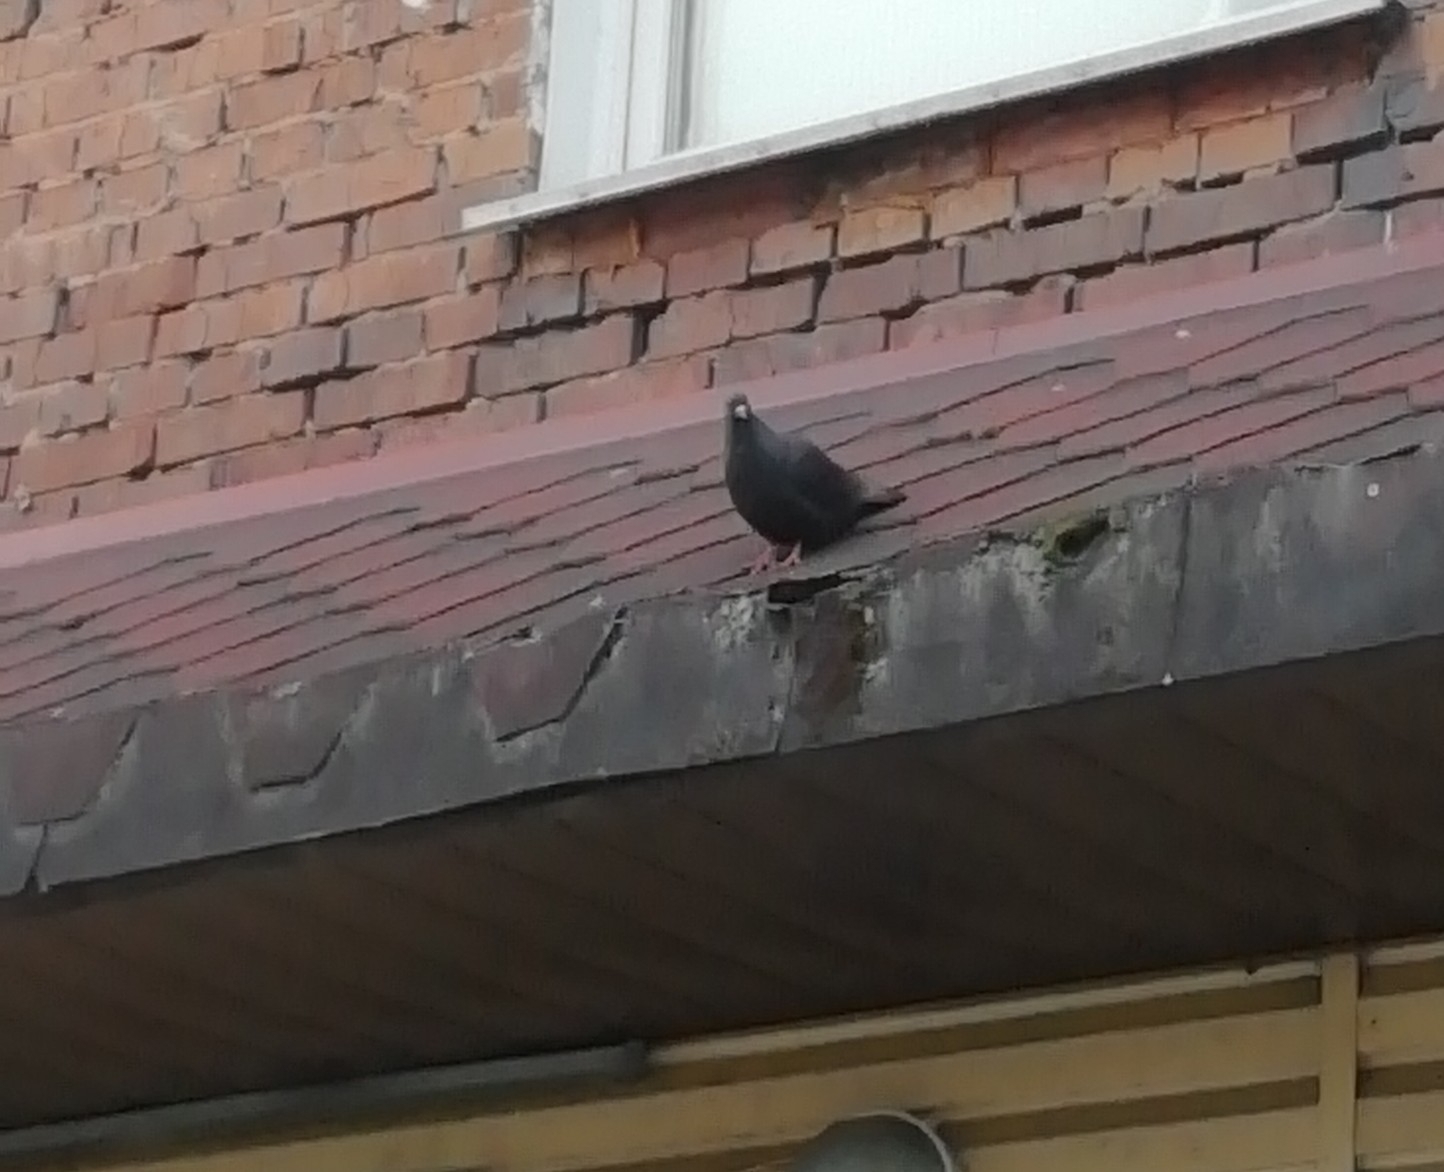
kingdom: Animalia
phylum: Chordata
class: Aves
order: Columbiformes
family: Columbidae
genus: Columba
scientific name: Columba livia
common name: Rock pigeon
